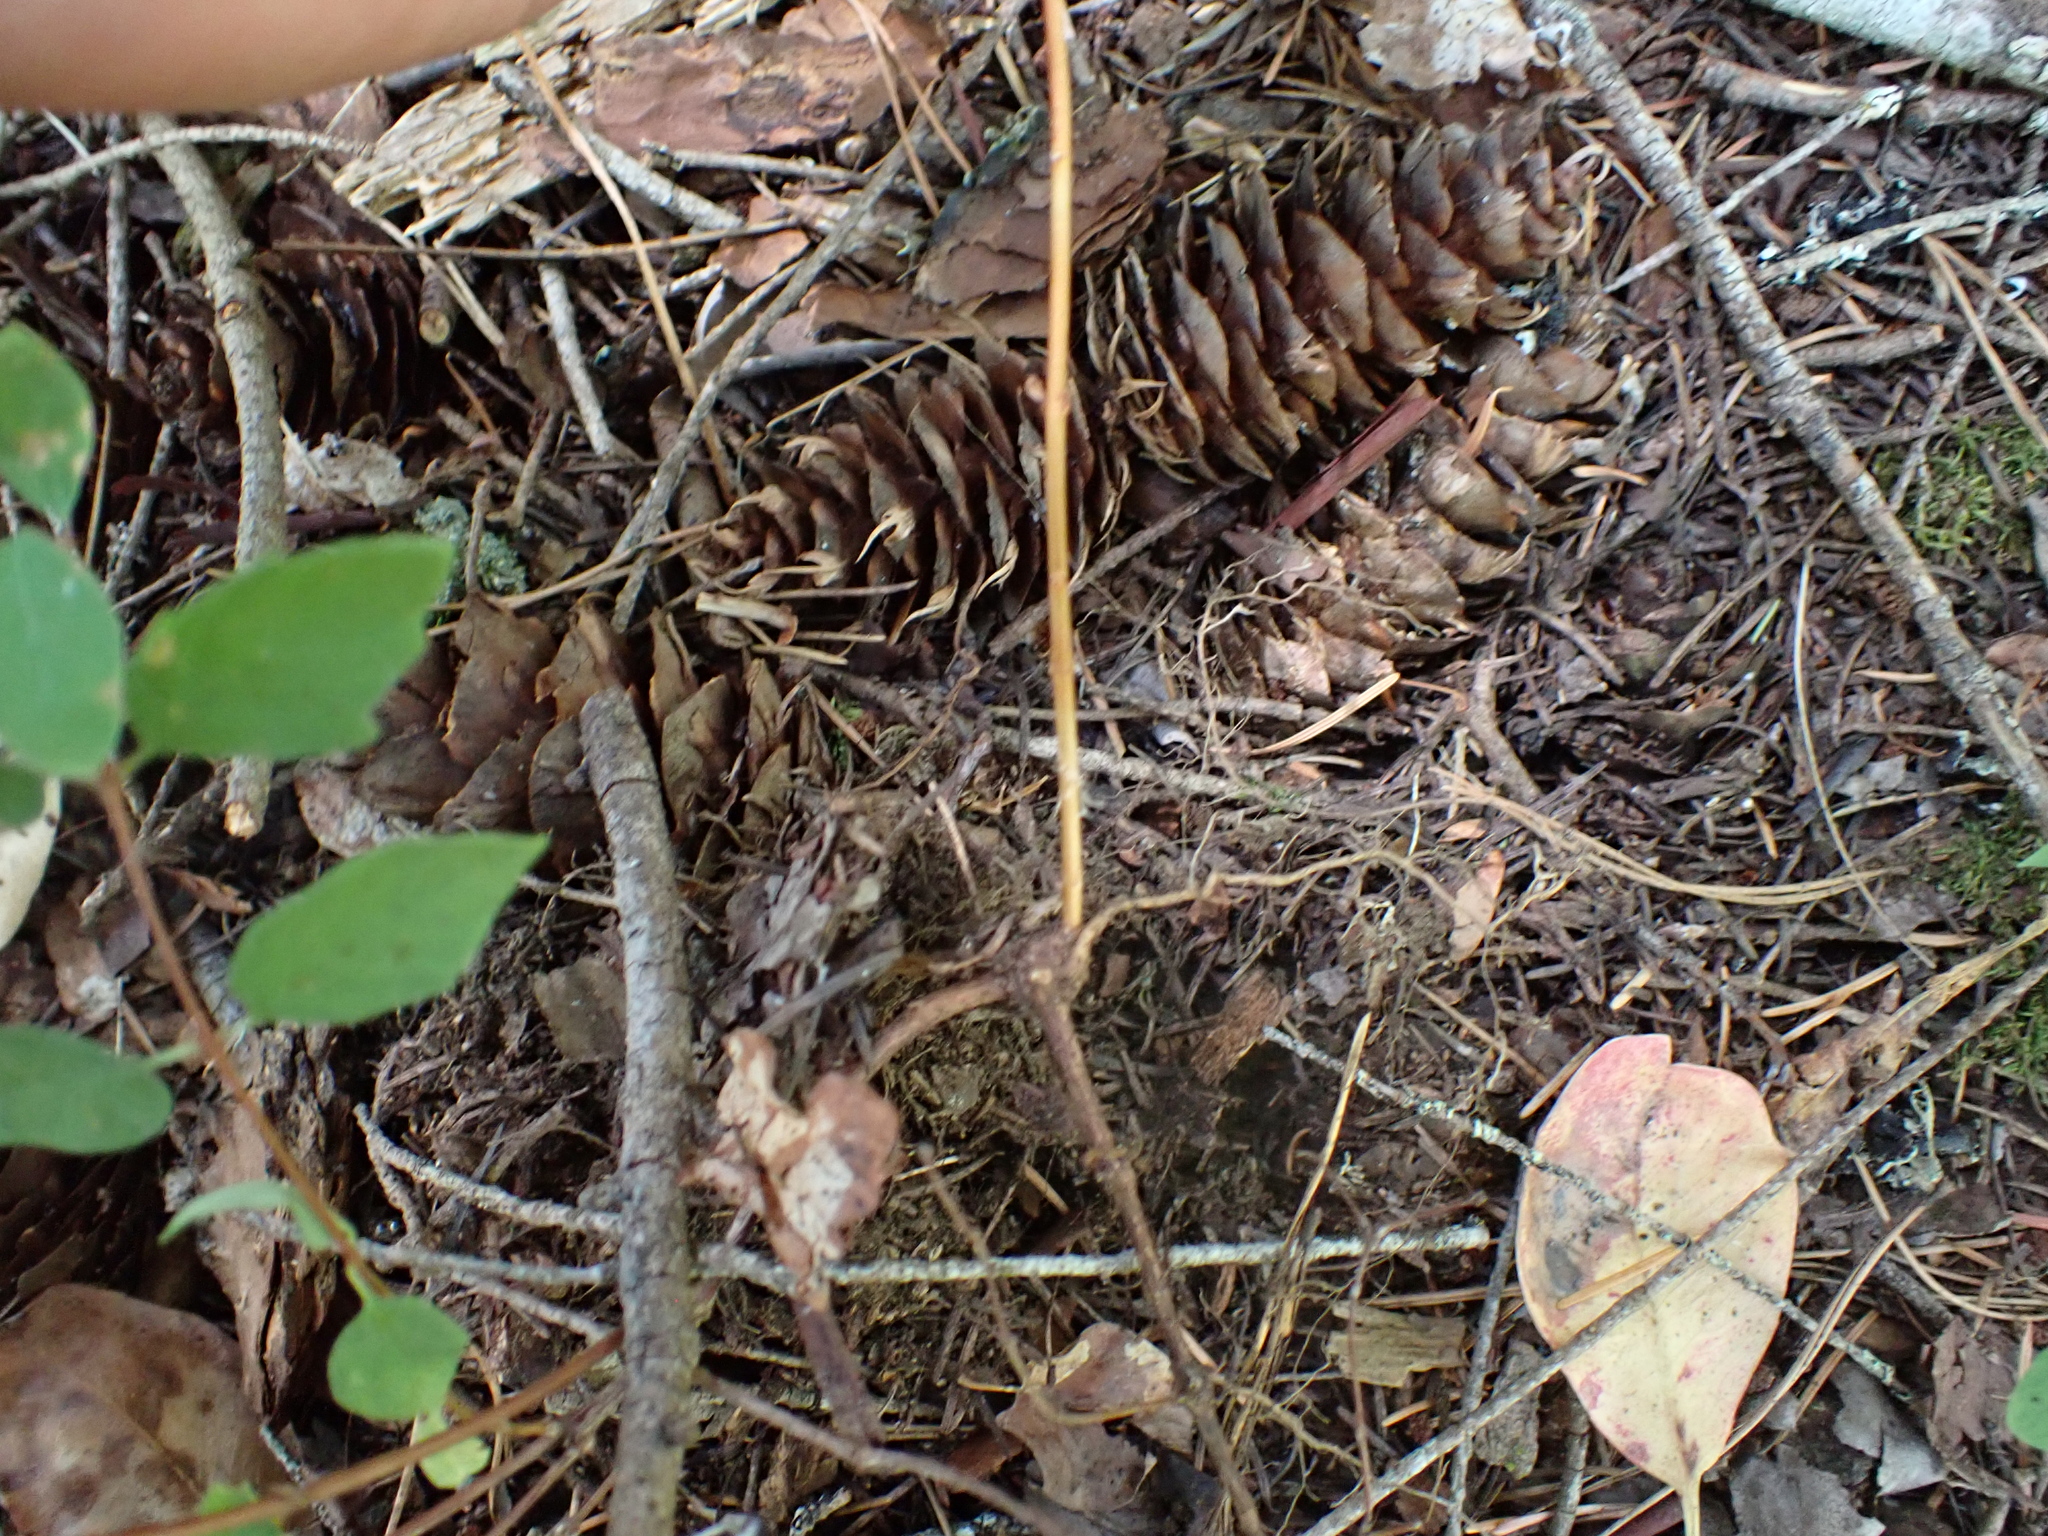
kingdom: Plantae
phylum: Tracheophyta
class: Pinopsida
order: Pinales
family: Pinaceae
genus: Pseudotsuga
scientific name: Pseudotsuga menziesii
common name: Douglas fir
